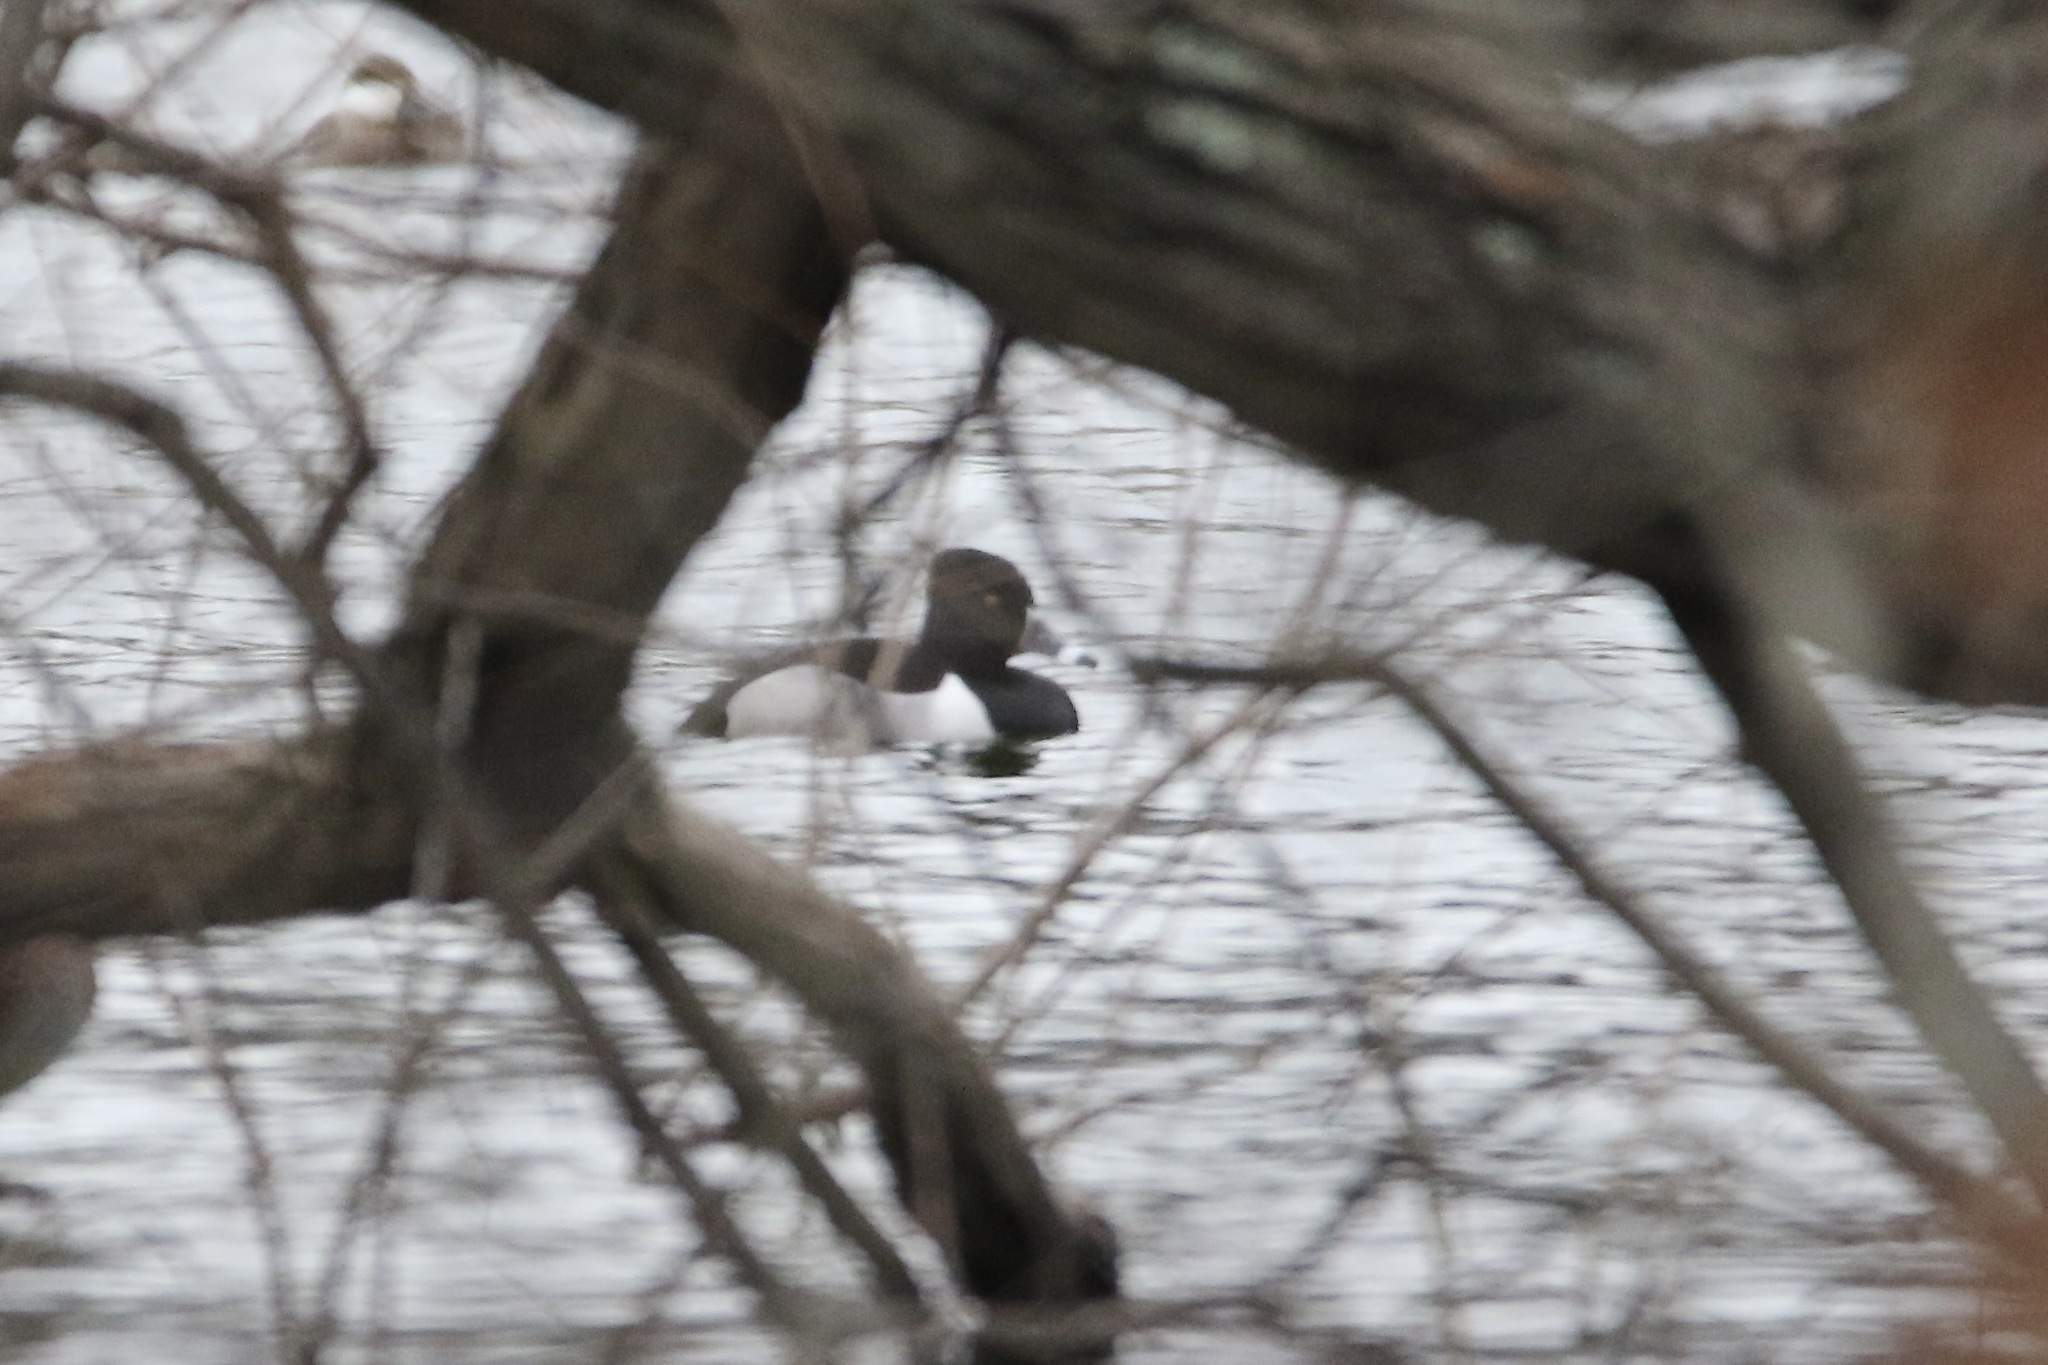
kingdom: Animalia
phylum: Chordata
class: Aves
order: Anseriformes
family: Anatidae
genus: Aythya
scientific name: Aythya collaris
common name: Ring-necked duck
